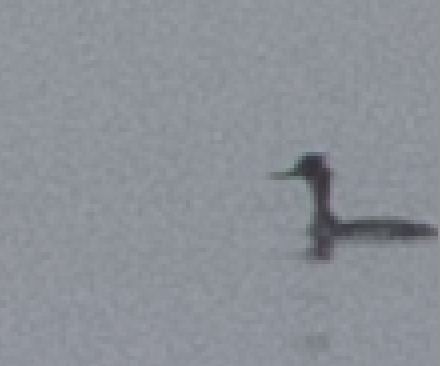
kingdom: Animalia
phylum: Chordata
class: Aves
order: Anseriformes
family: Anatidae
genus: Mergus
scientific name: Mergus serrator
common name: Red-breasted merganser
